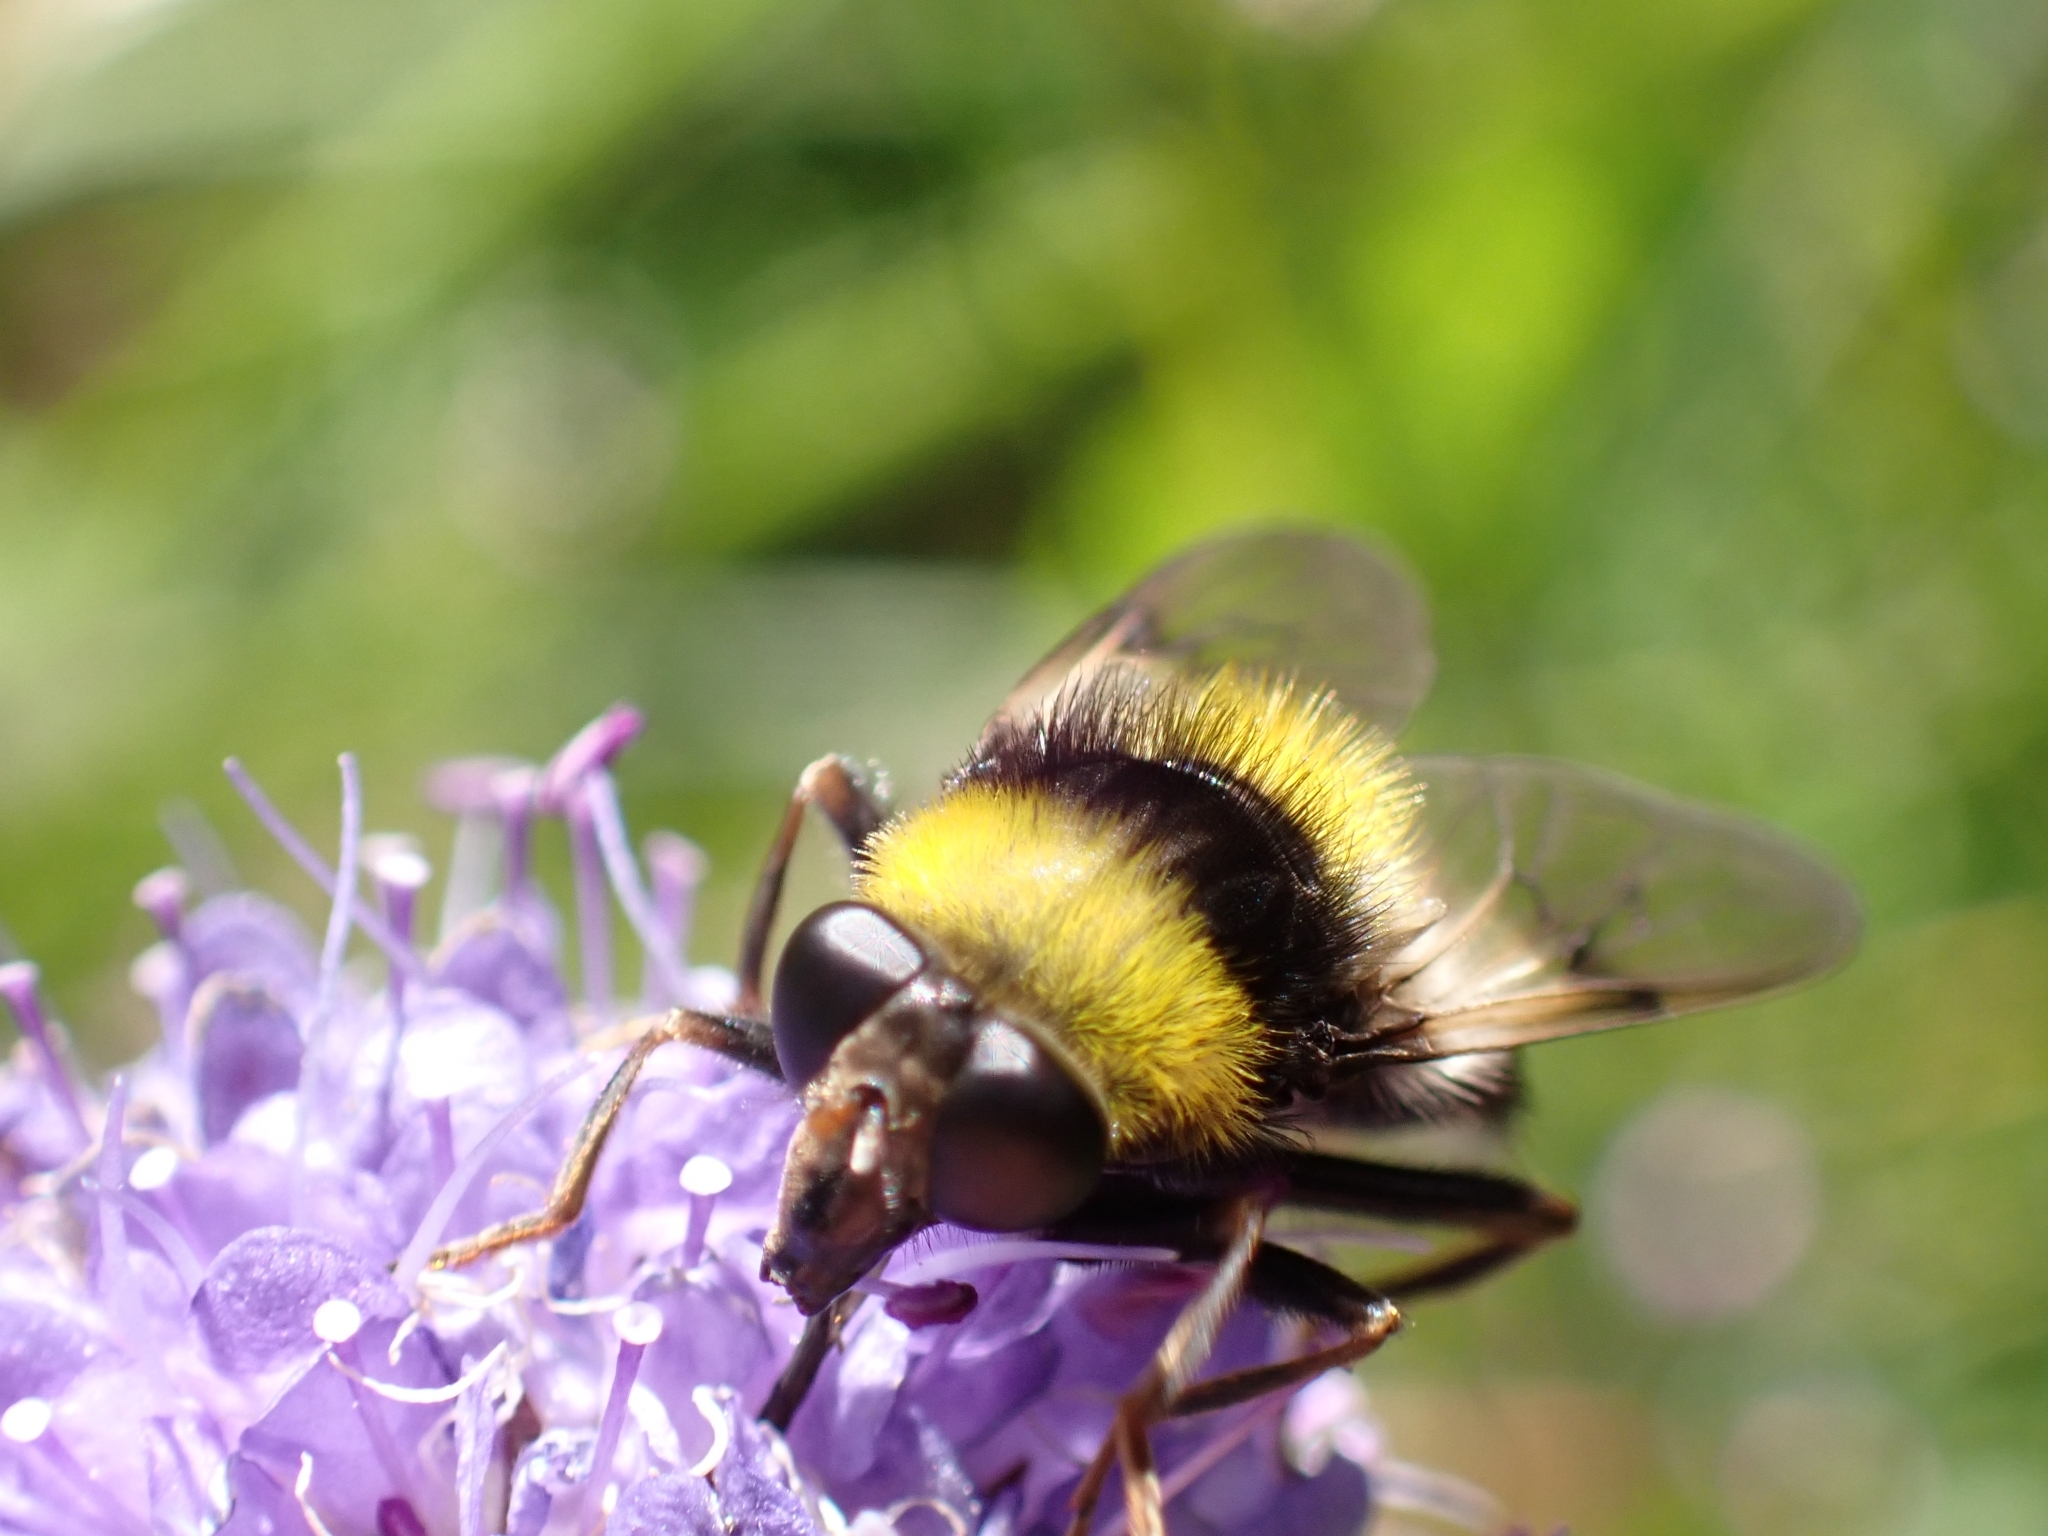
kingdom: Animalia
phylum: Arthropoda
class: Insecta
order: Diptera
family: Syrphidae
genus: Sericomyia
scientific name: Sericomyia bombiformis
